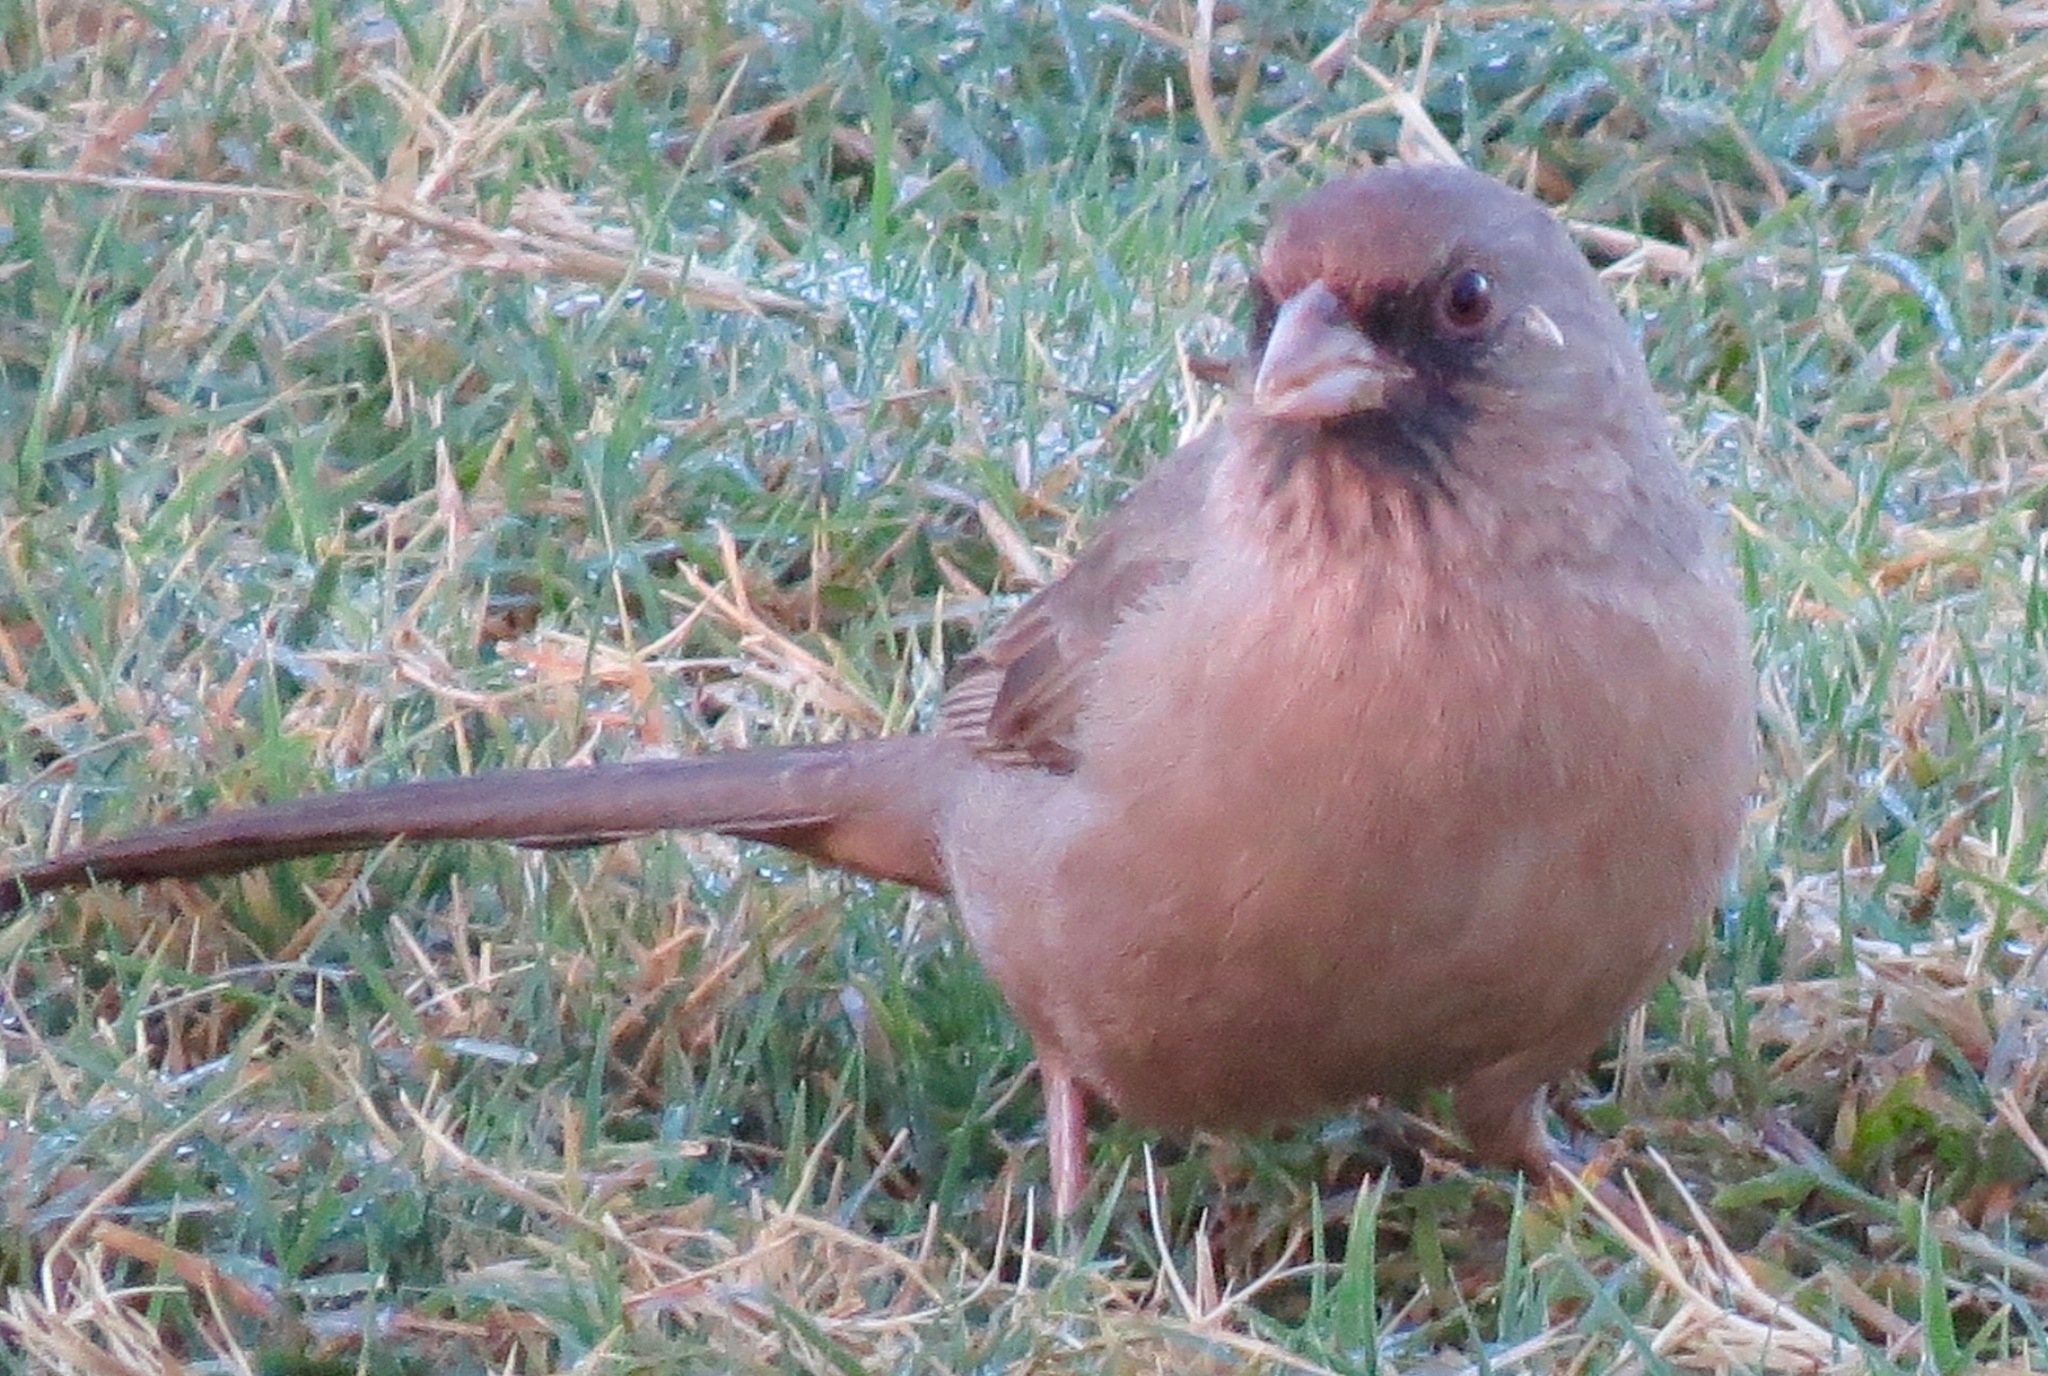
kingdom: Animalia
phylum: Chordata
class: Aves
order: Passeriformes
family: Passerellidae
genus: Melozone
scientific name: Melozone aberti
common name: Abert's towhee
